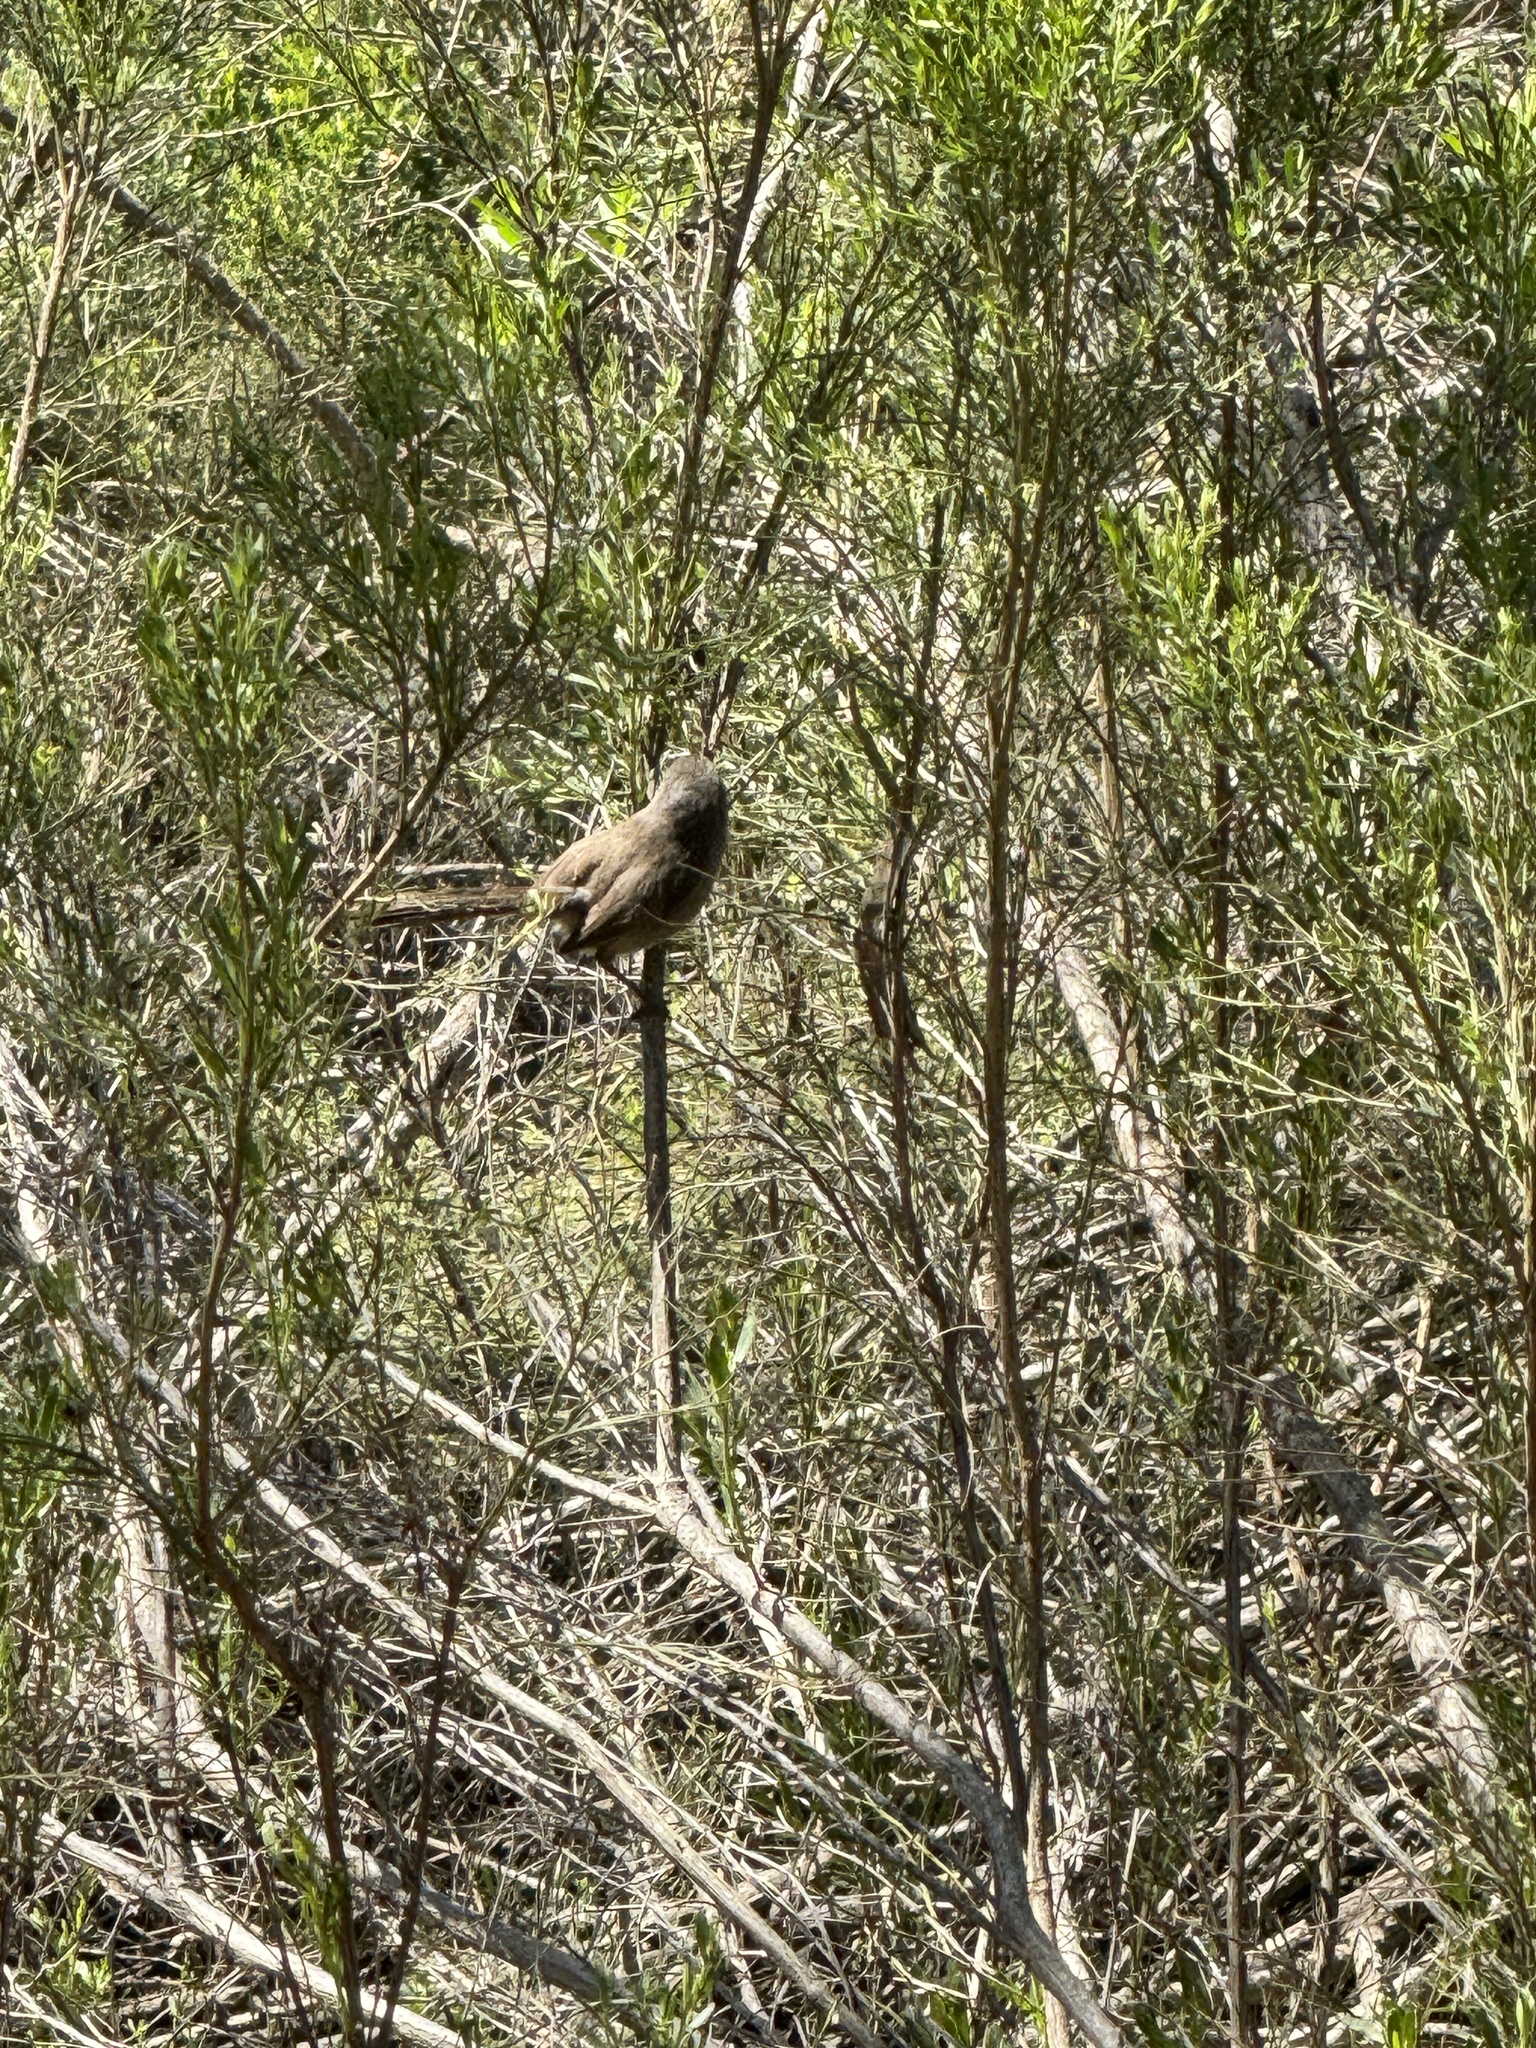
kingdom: Animalia
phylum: Chordata
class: Aves
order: Passeriformes
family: Sylviidae
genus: Chamaea
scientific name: Chamaea fasciata
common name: Wrentit
